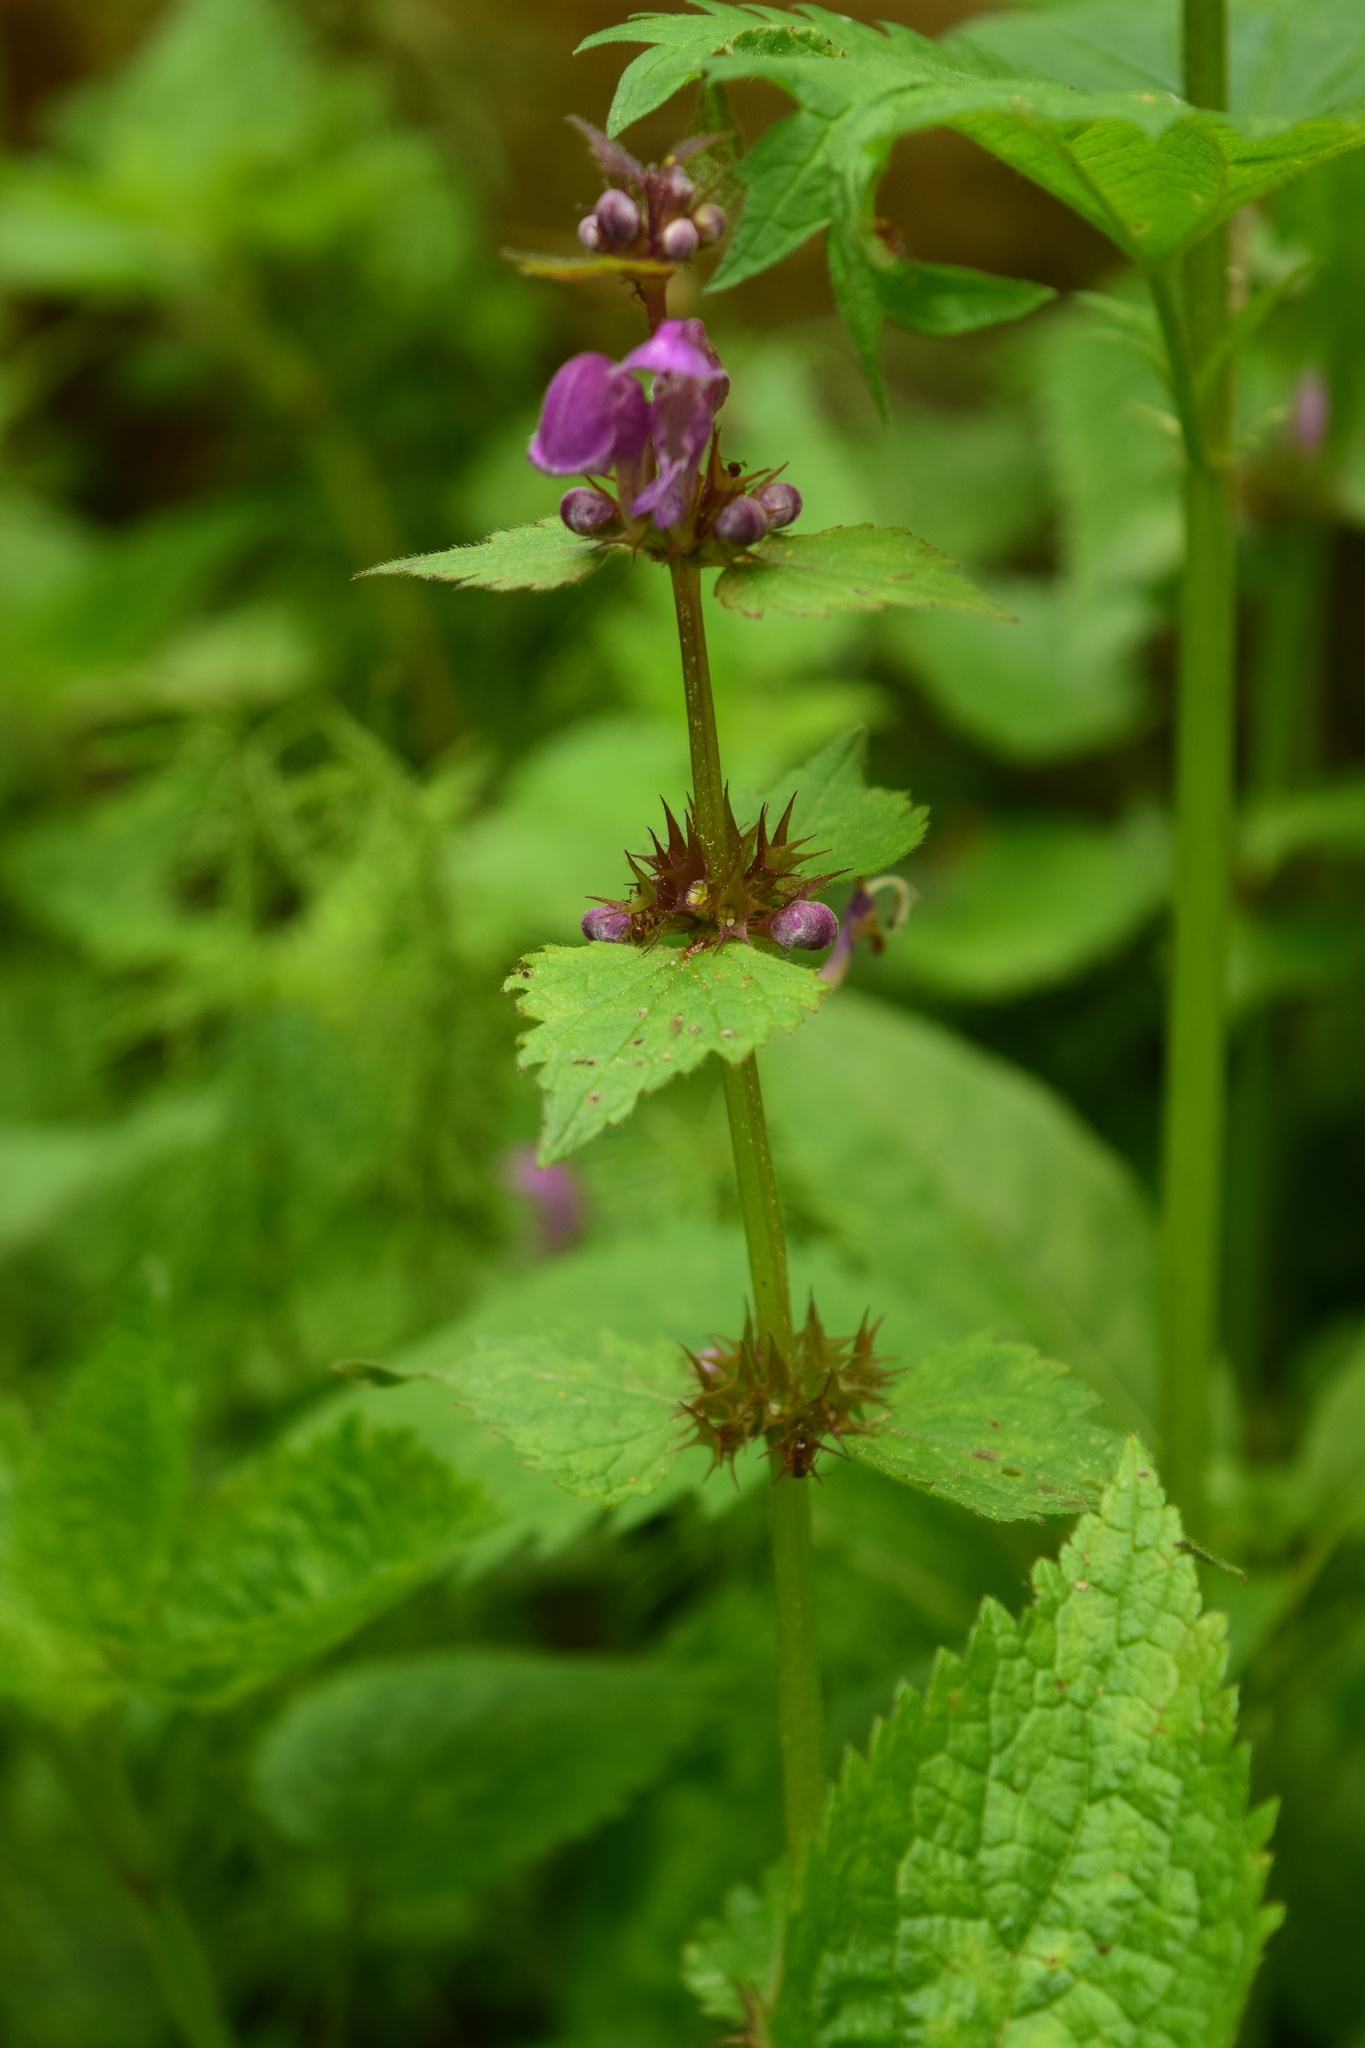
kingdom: Plantae
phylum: Tracheophyta
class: Magnoliopsida
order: Lamiales
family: Lamiaceae
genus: Lamium
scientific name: Lamium maculatum
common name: Spotted dead-nettle
